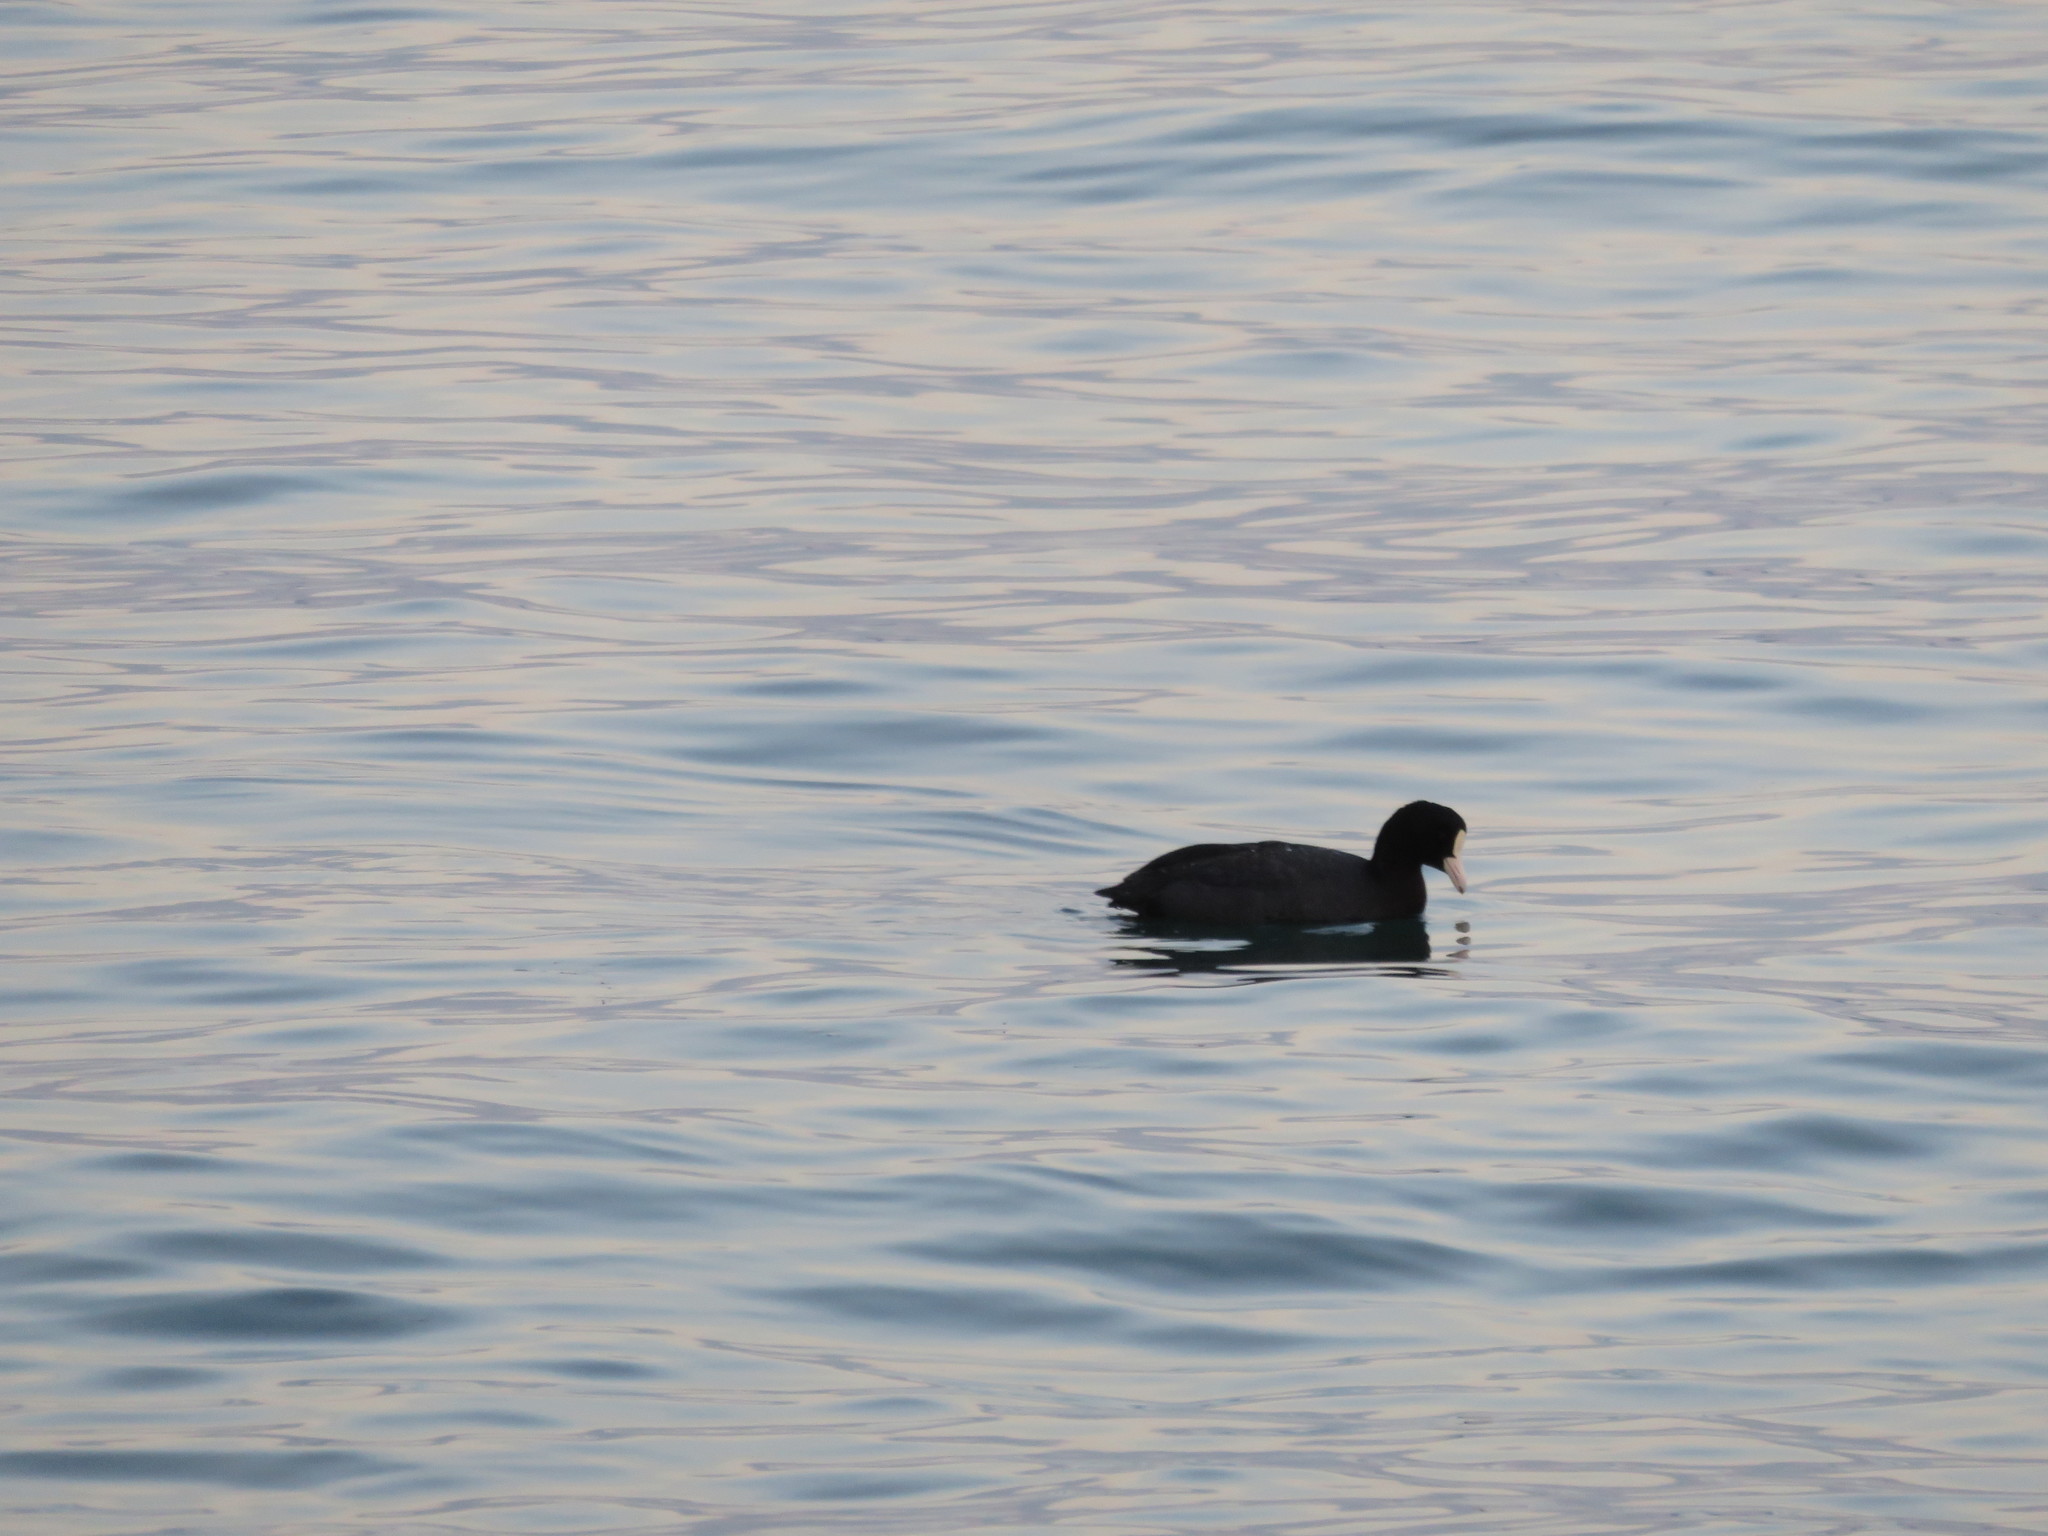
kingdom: Animalia
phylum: Chordata
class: Aves
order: Gruiformes
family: Rallidae
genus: Fulica
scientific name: Fulica atra
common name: Eurasian coot
